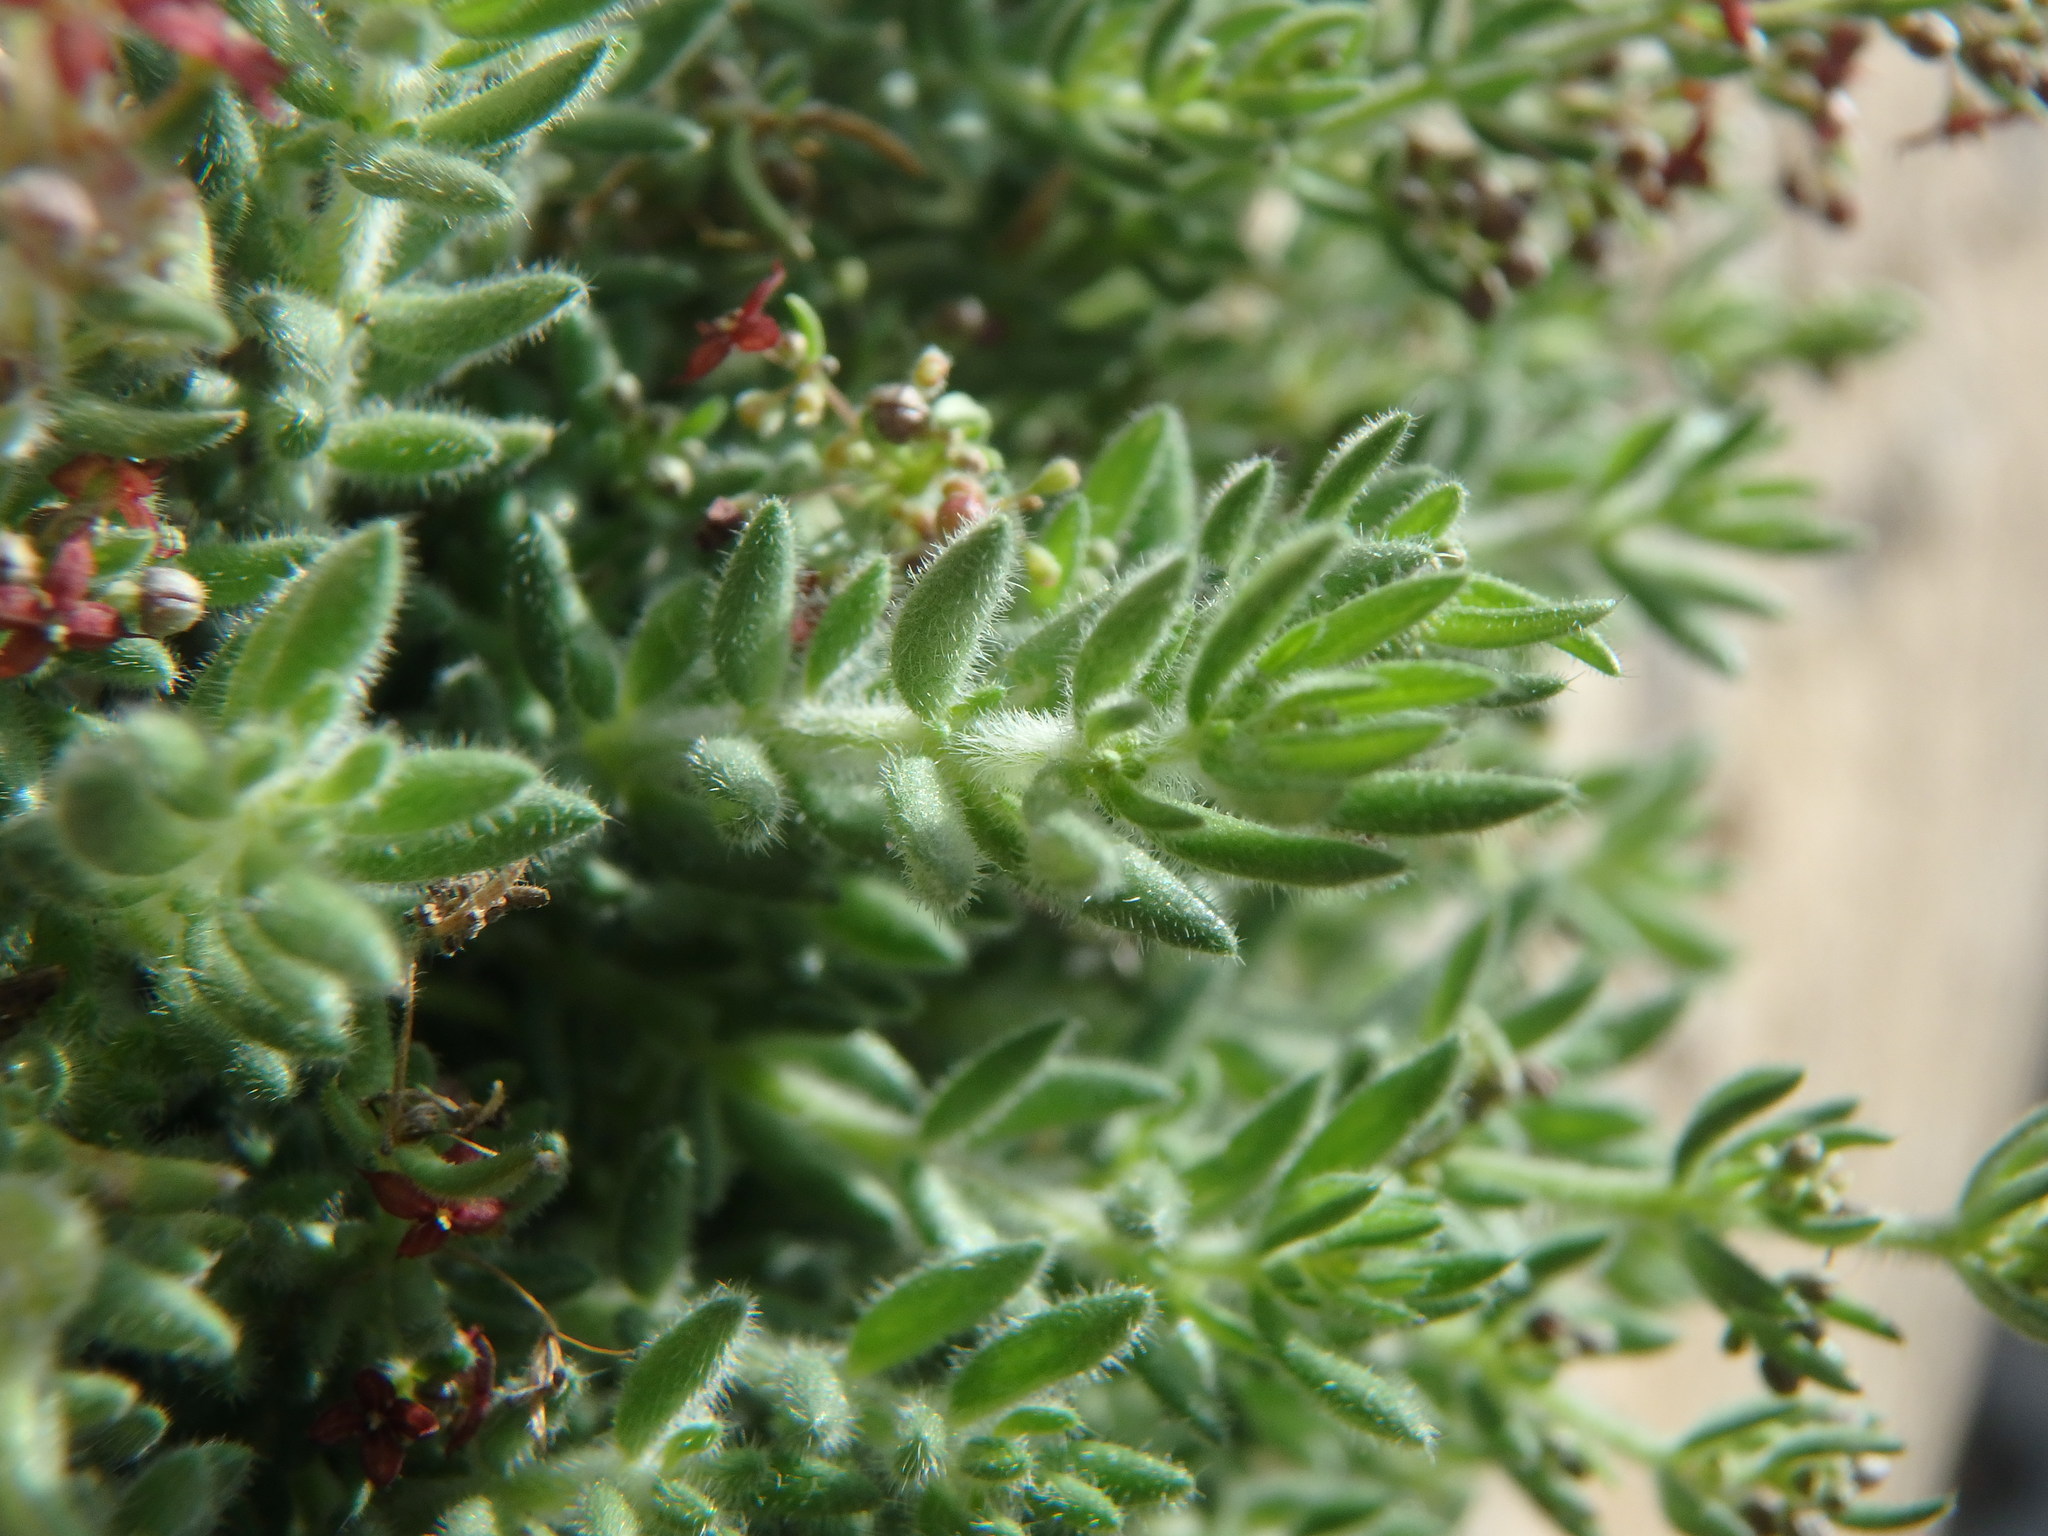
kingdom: Plantae
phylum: Tracheophyta
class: Magnoliopsida
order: Gentianales
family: Rubiaceae
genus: Galium
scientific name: Galium canum
